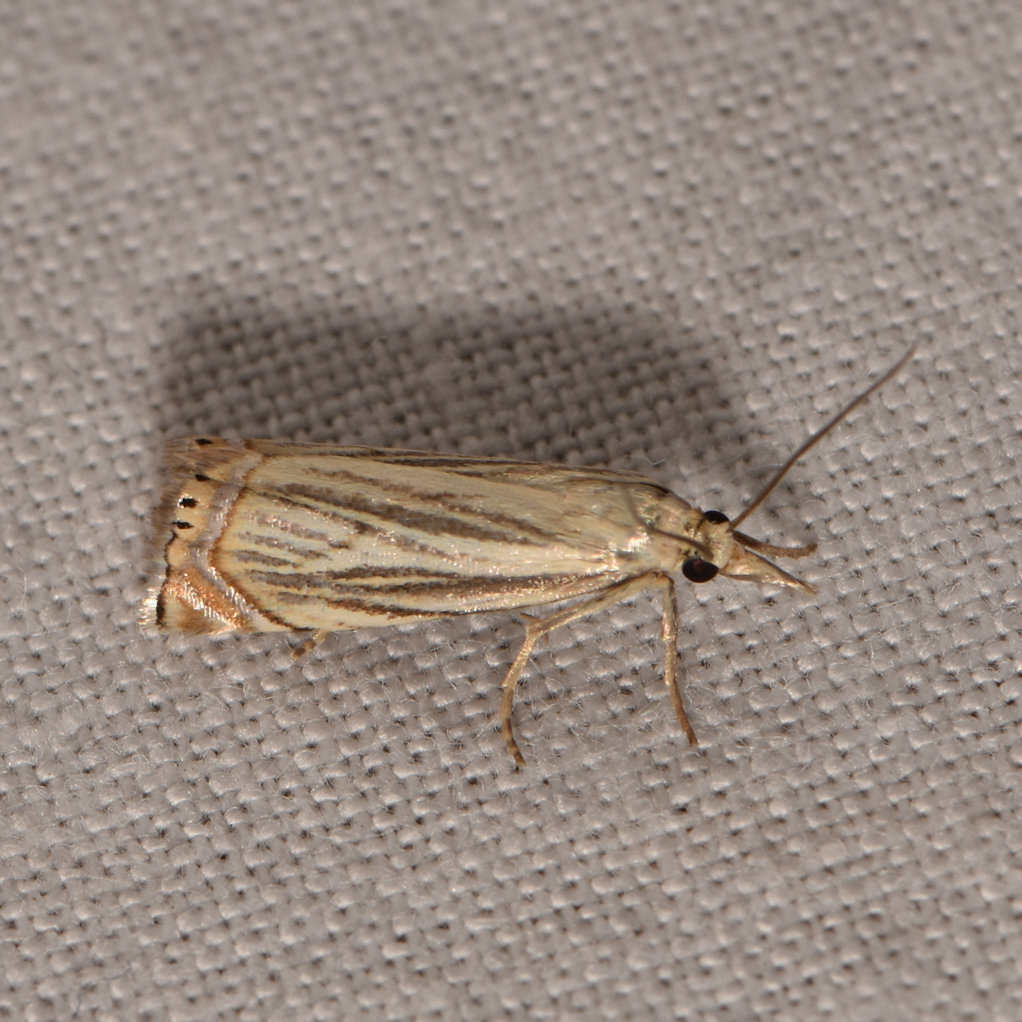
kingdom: Animalia
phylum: Arthropoda
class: Insecta
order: Lepidoptera
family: Crambidae
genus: Chrysoteuchia
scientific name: Chrysoteuchia topiarius
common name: Topiary grass-veneer
